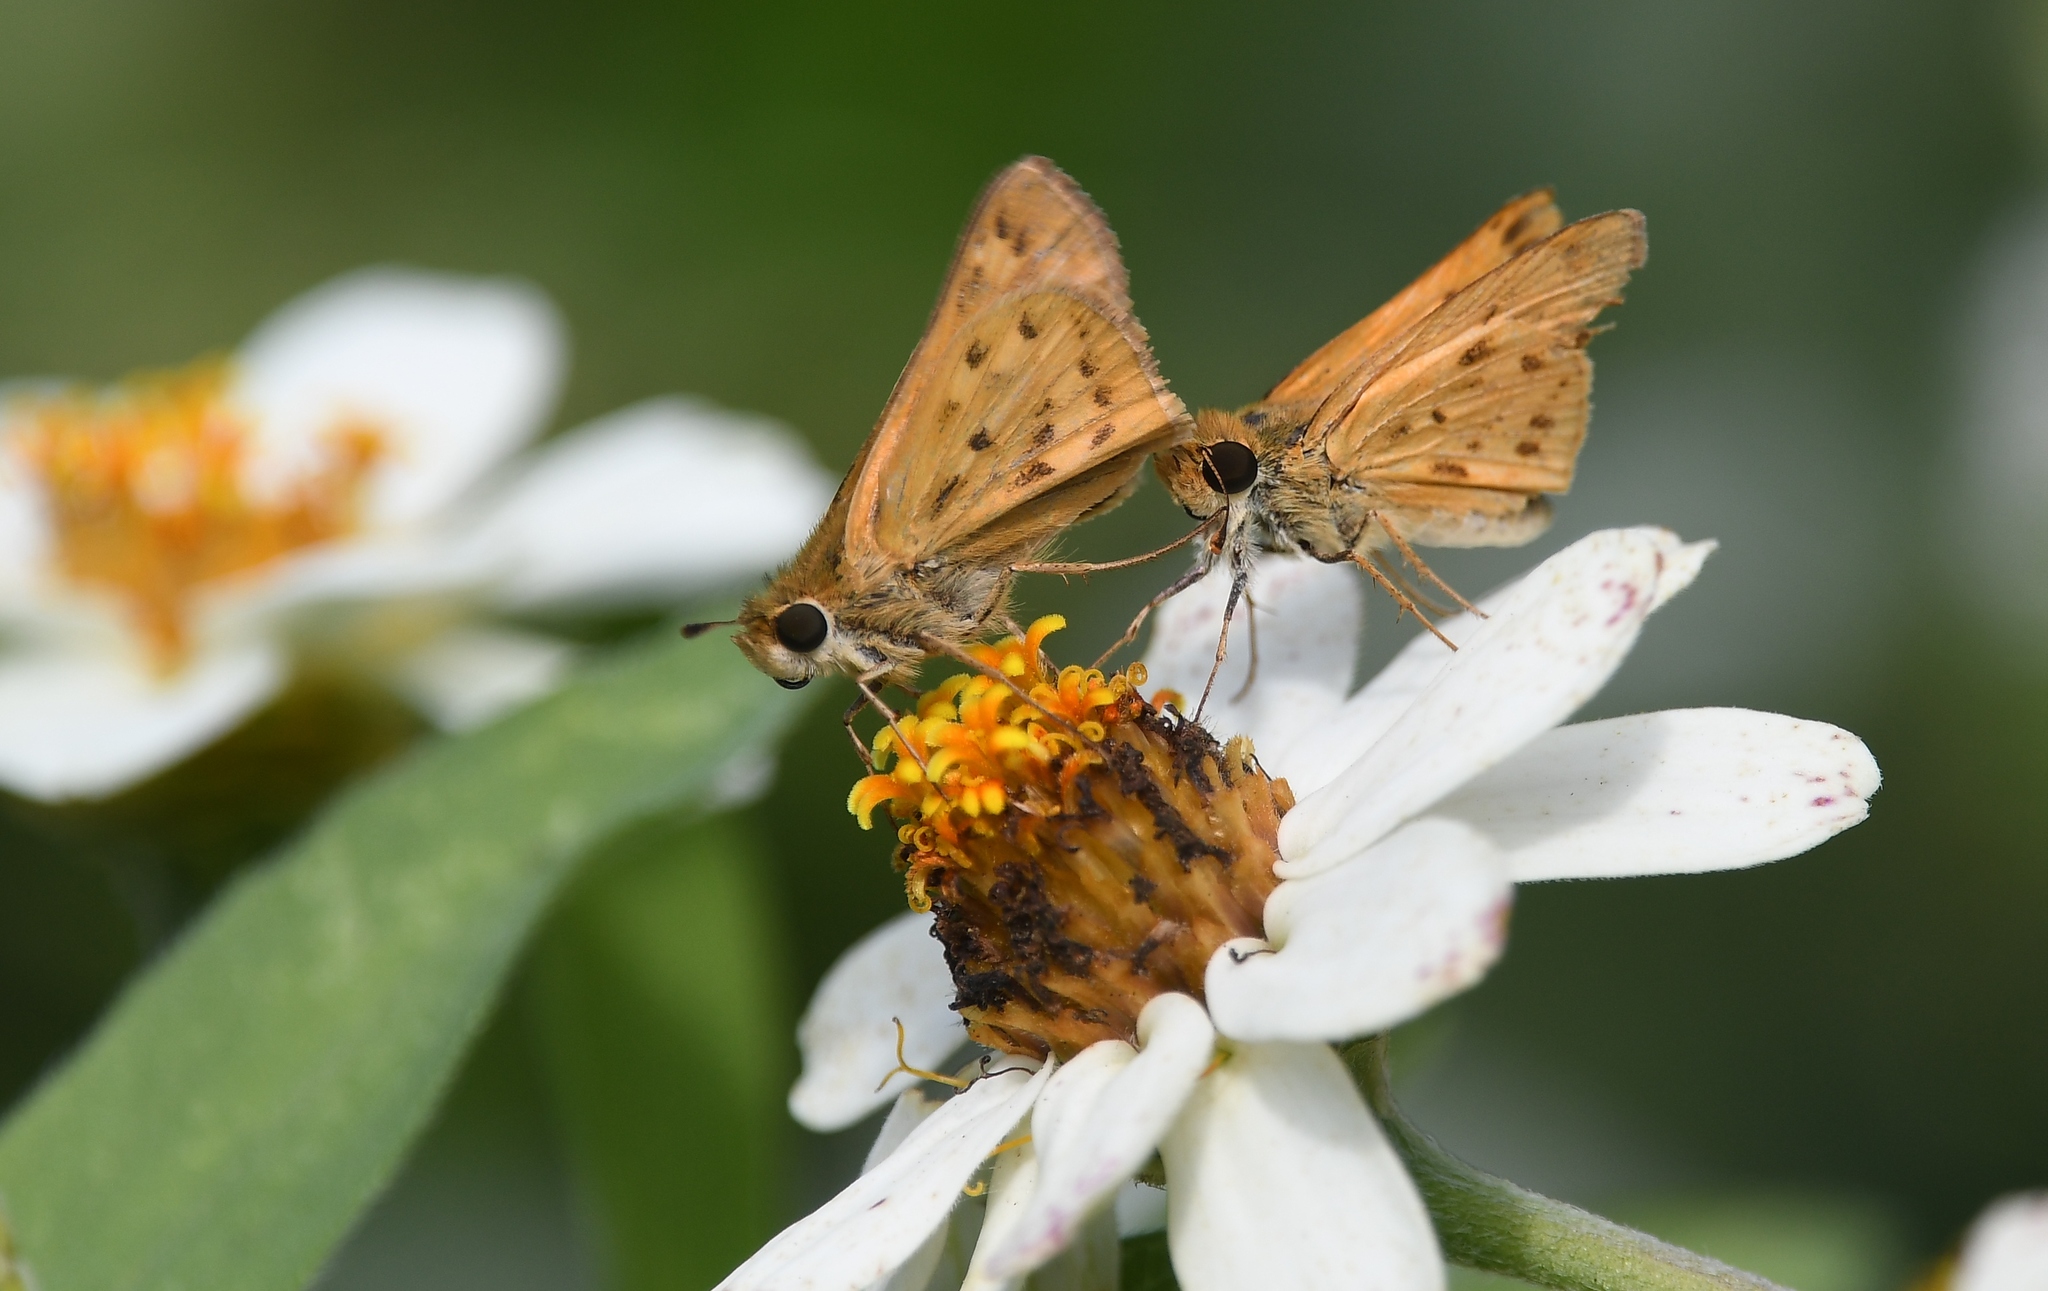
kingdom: Animalia
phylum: Arthropoda
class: Insecta
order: Lepidoptera
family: Hesperiidae
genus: Hylephila
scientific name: Hylephila phyleus
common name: Fiery skipper
